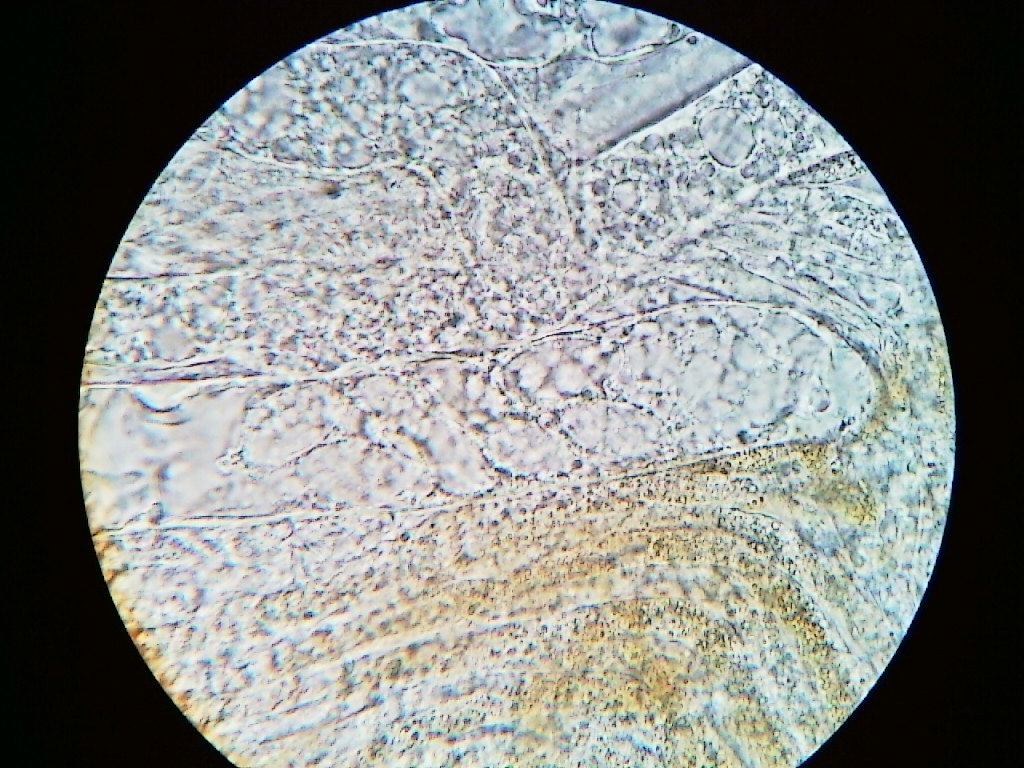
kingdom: Fungi
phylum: Ascomycota
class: Pezizomycetes
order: Pezizales
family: Discinaceae
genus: Gyromitra
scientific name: Gyromitra leucoxantha
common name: Fishtail cup
